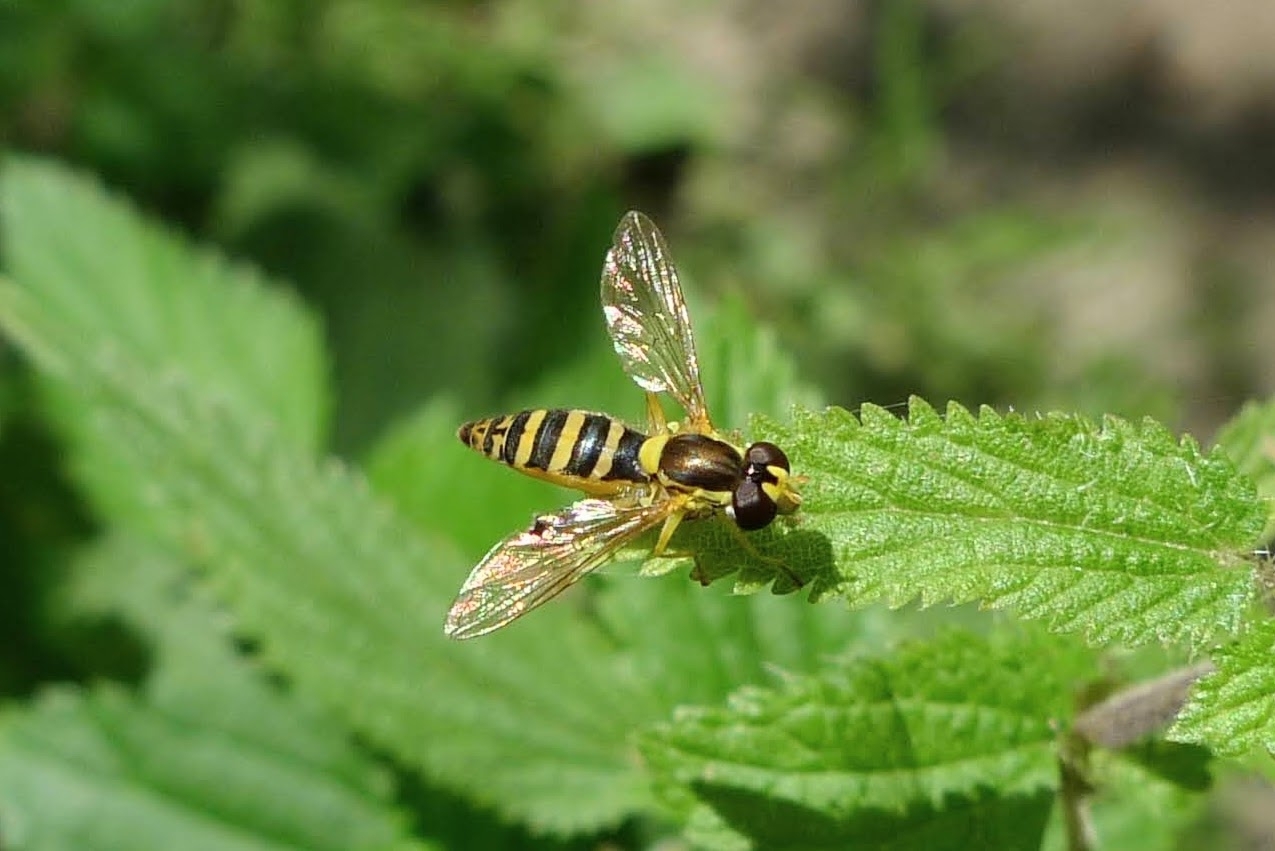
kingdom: Animalia
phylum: Arthropoda
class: Insecta
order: Diptera
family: Syrphidae
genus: Sphaerophoria
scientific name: Sphaerophoria
